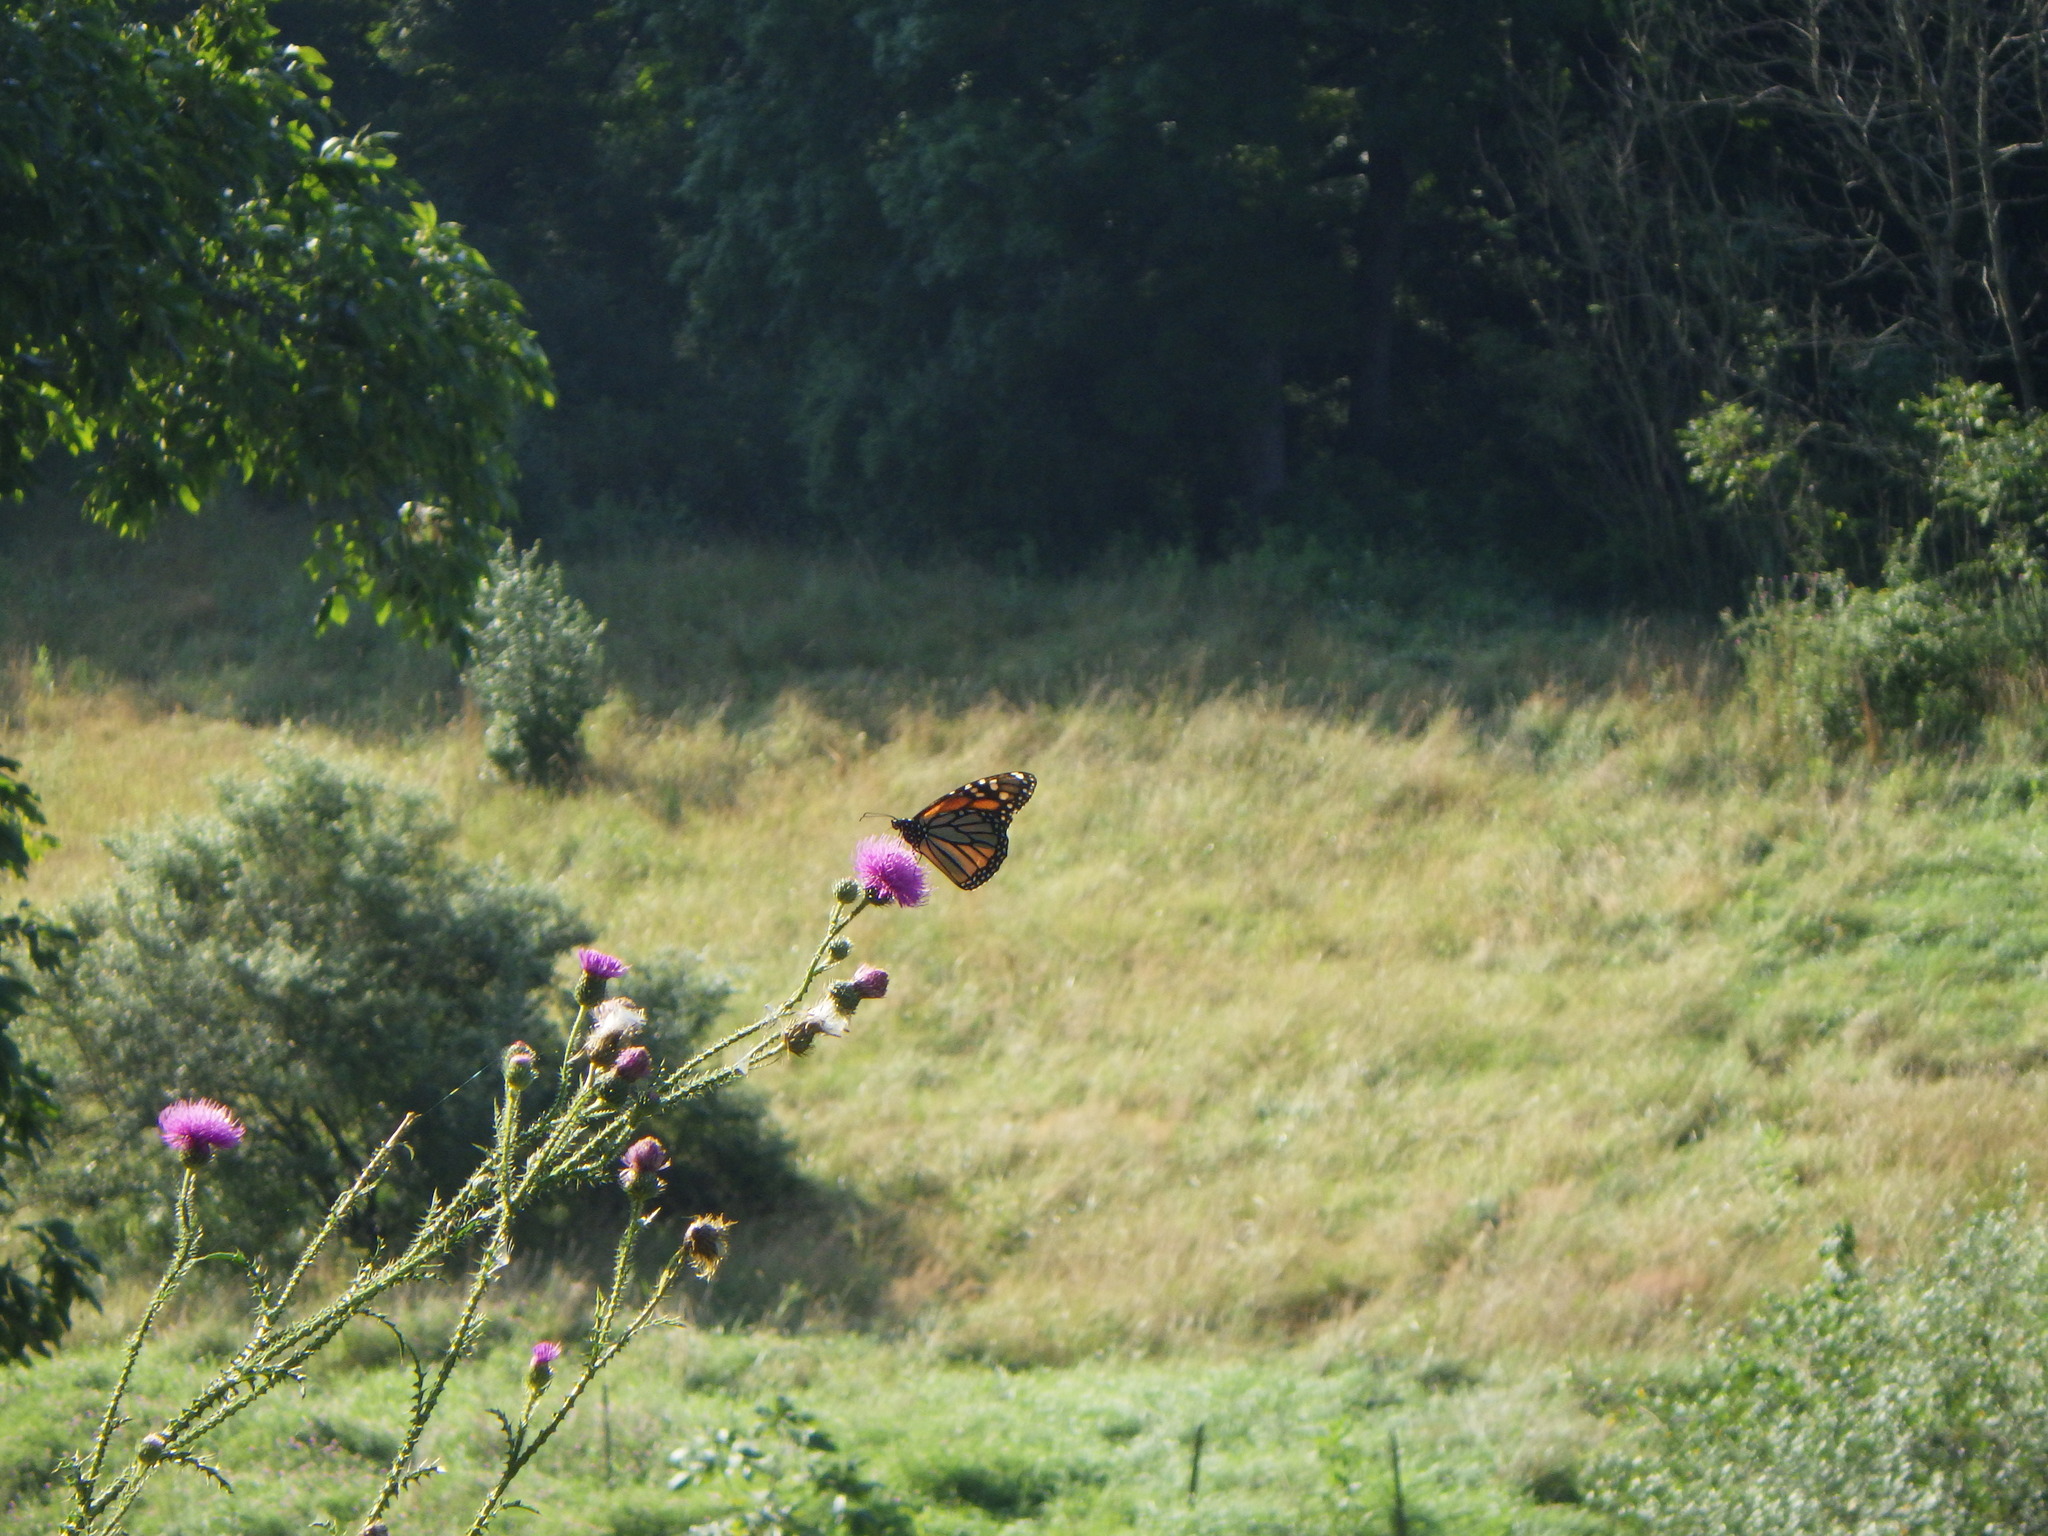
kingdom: Animalia
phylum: Arthropoda
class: Insecta
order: Lepidoptera
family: Nymphalidae
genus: Danaus
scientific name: Danaus plexippus
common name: Monarch
